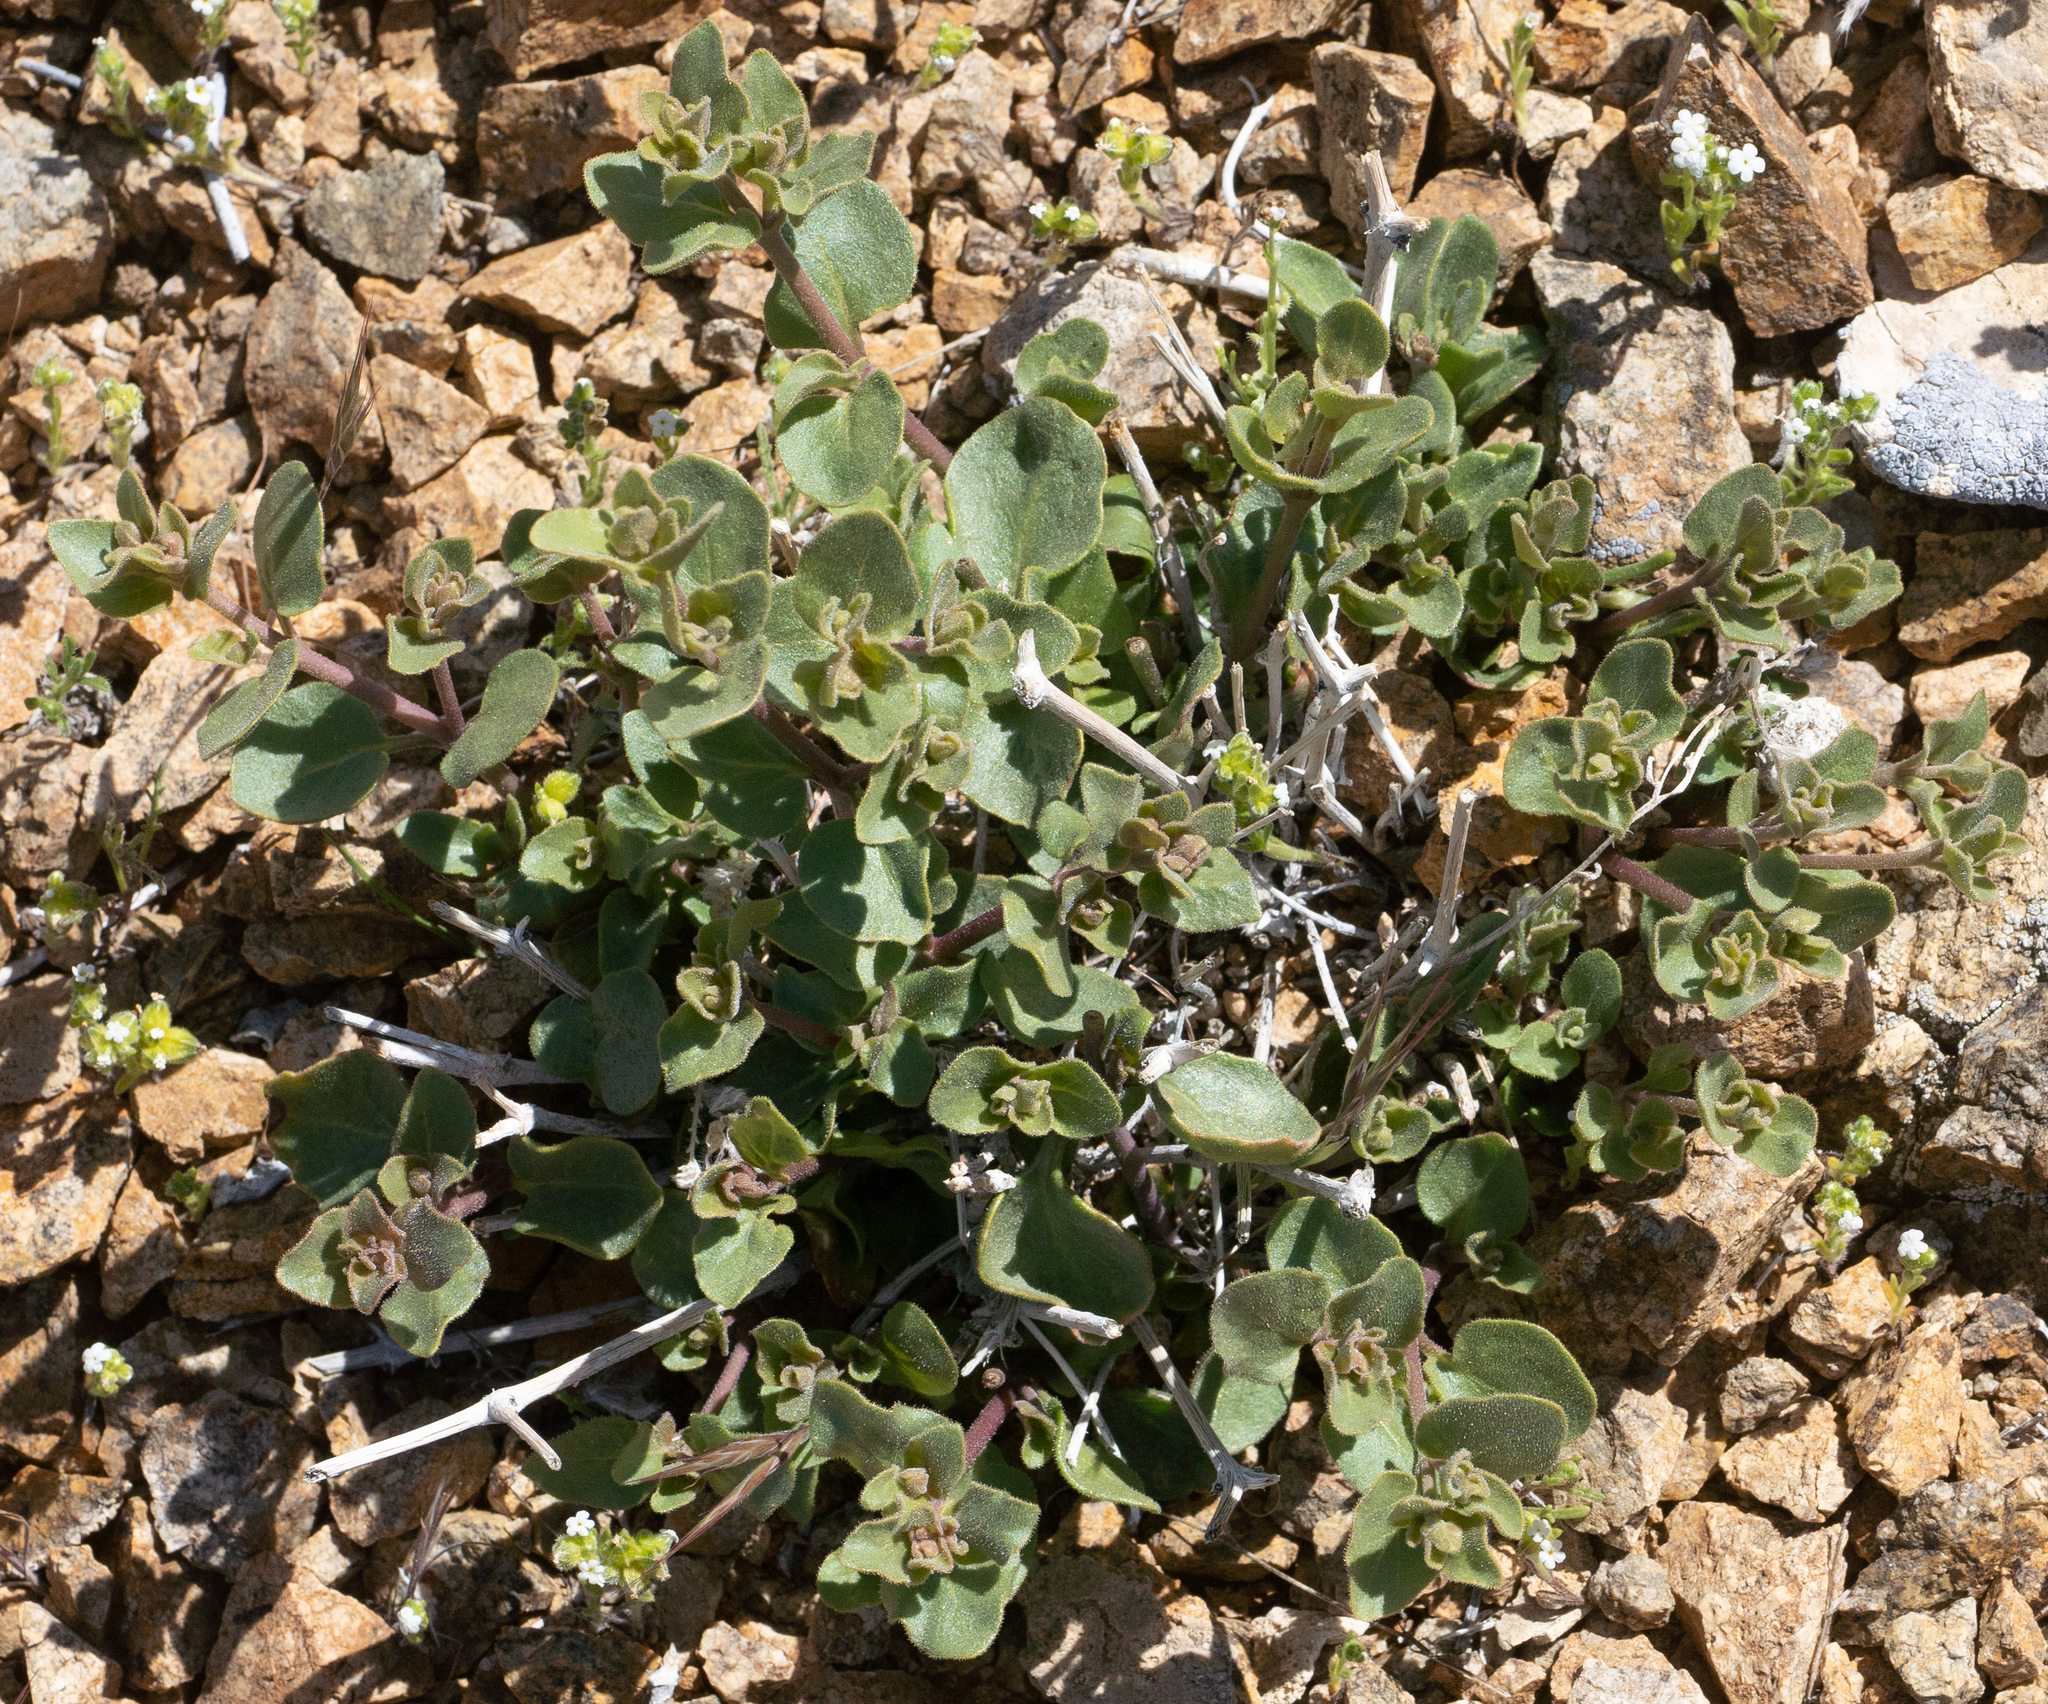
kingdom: Plantae
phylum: Tracheophyta
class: Magnoliopsida
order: Caryophyllales
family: Nyctaginaceae
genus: Mirabilis
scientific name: Mirabilis laevis
